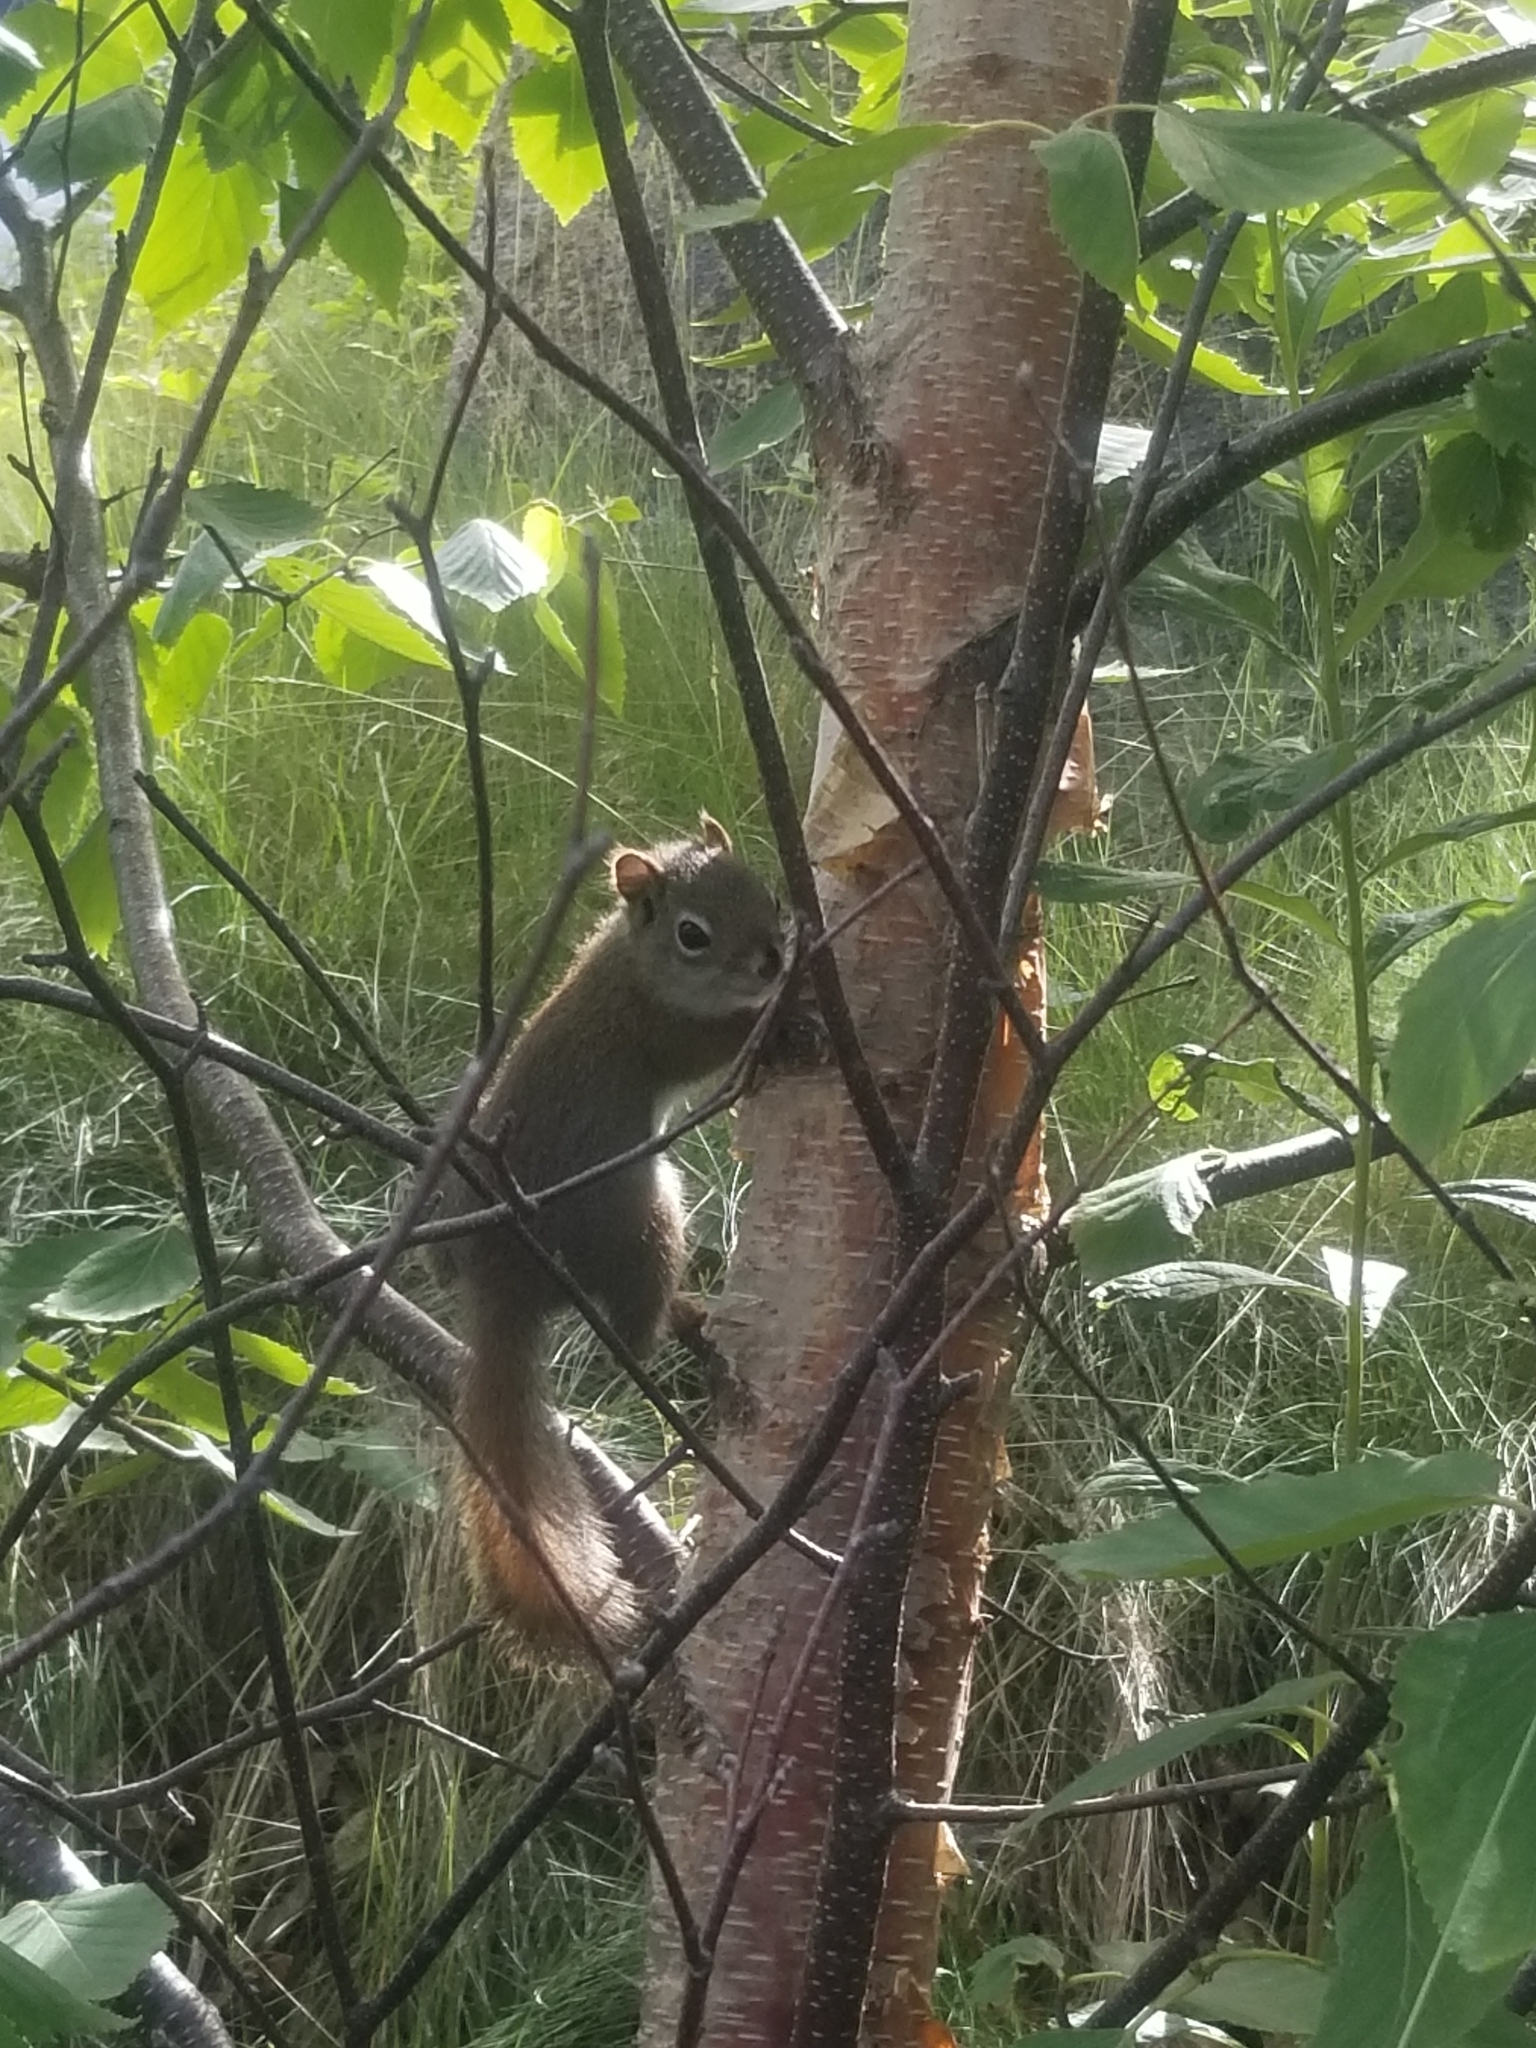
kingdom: Animalia
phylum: Chordata
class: Mammalia
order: Rodentia
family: Sciuridae
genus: Tamiasciurus
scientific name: Tamiasciurus hudsonicus
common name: Red squirrel
